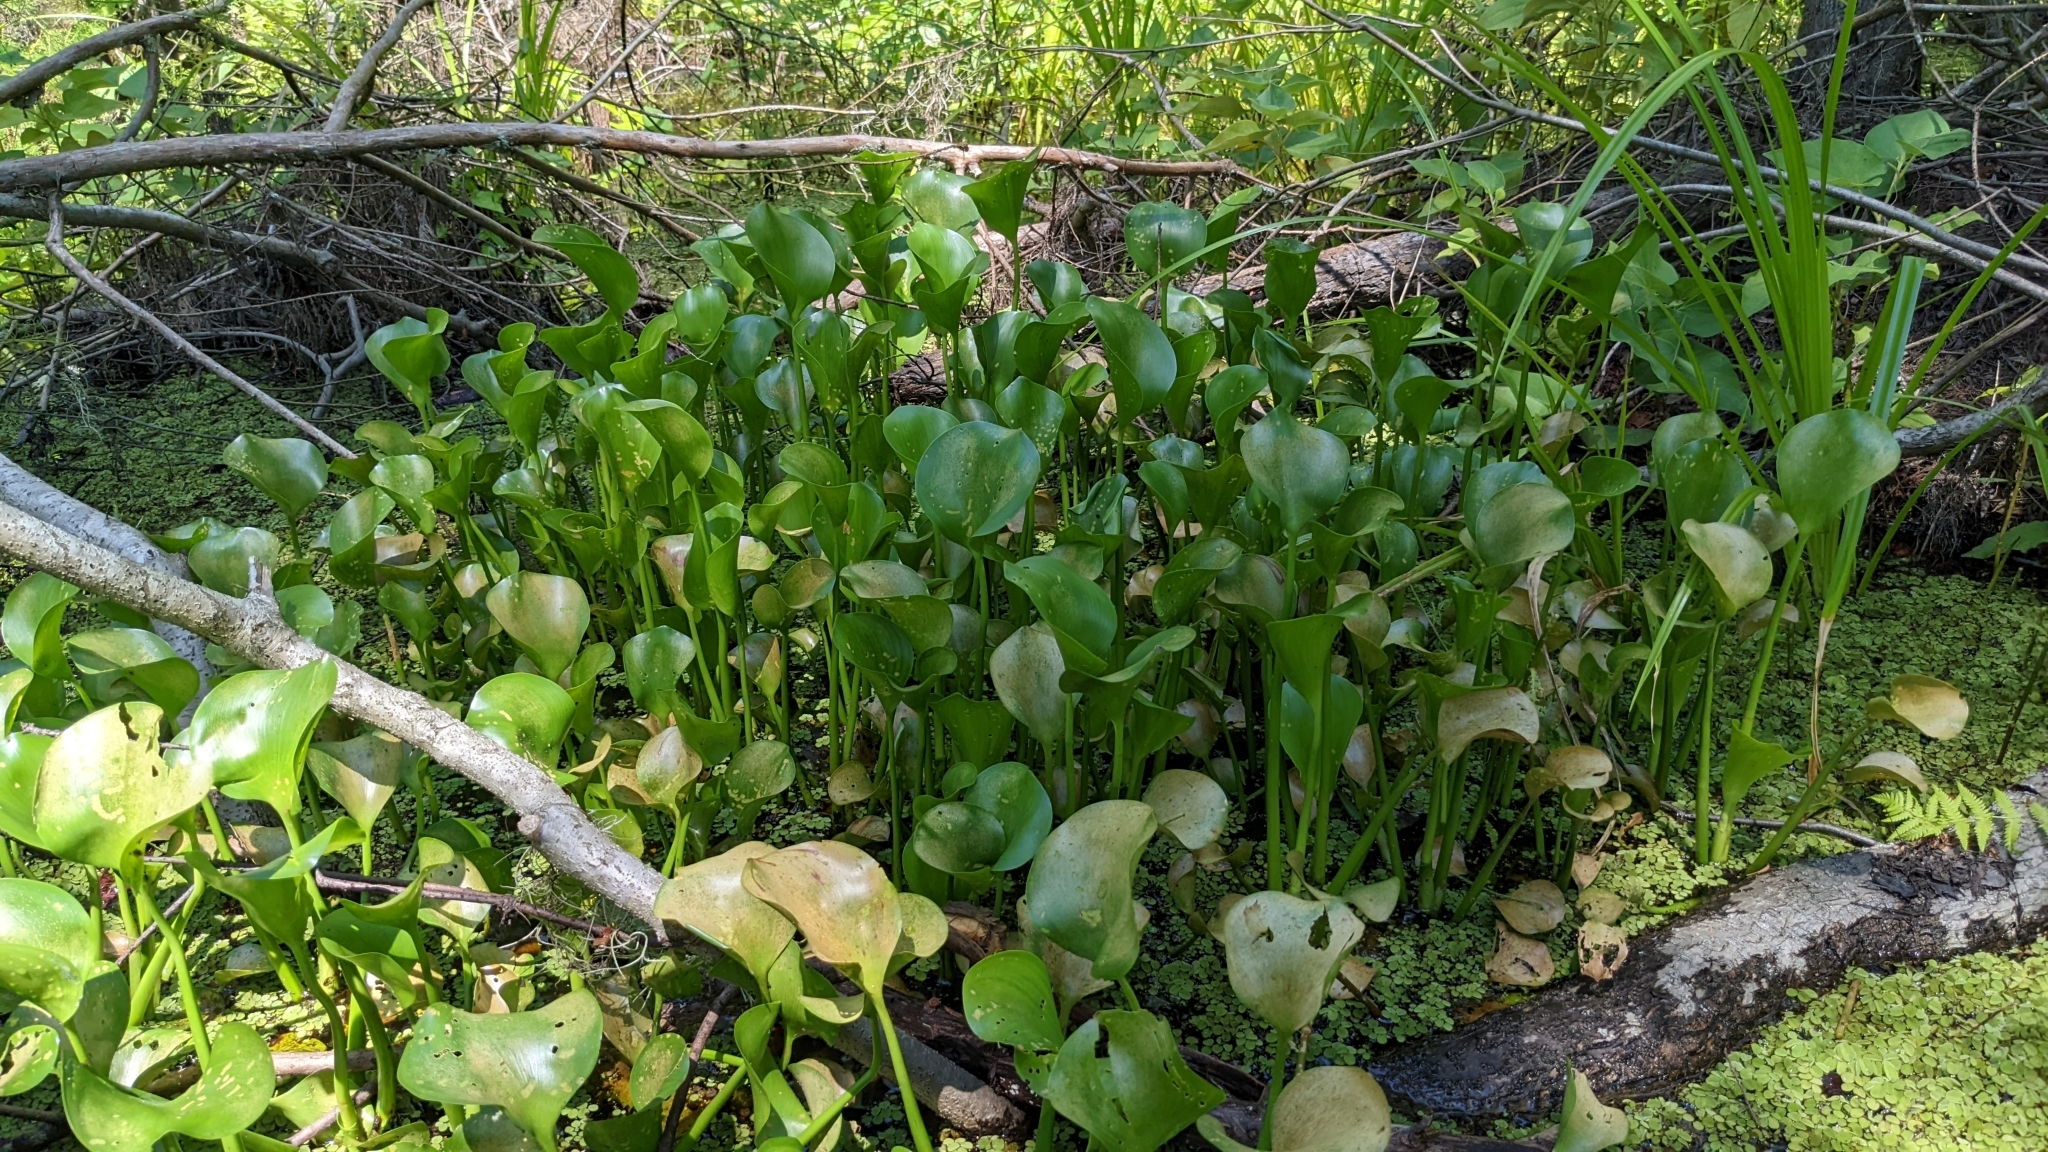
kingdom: Plantae
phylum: Tracheophyta
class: Liliopsida
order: Commelinales
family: Pontederiaceae
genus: Pontederia
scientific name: Pontederia crassipes
